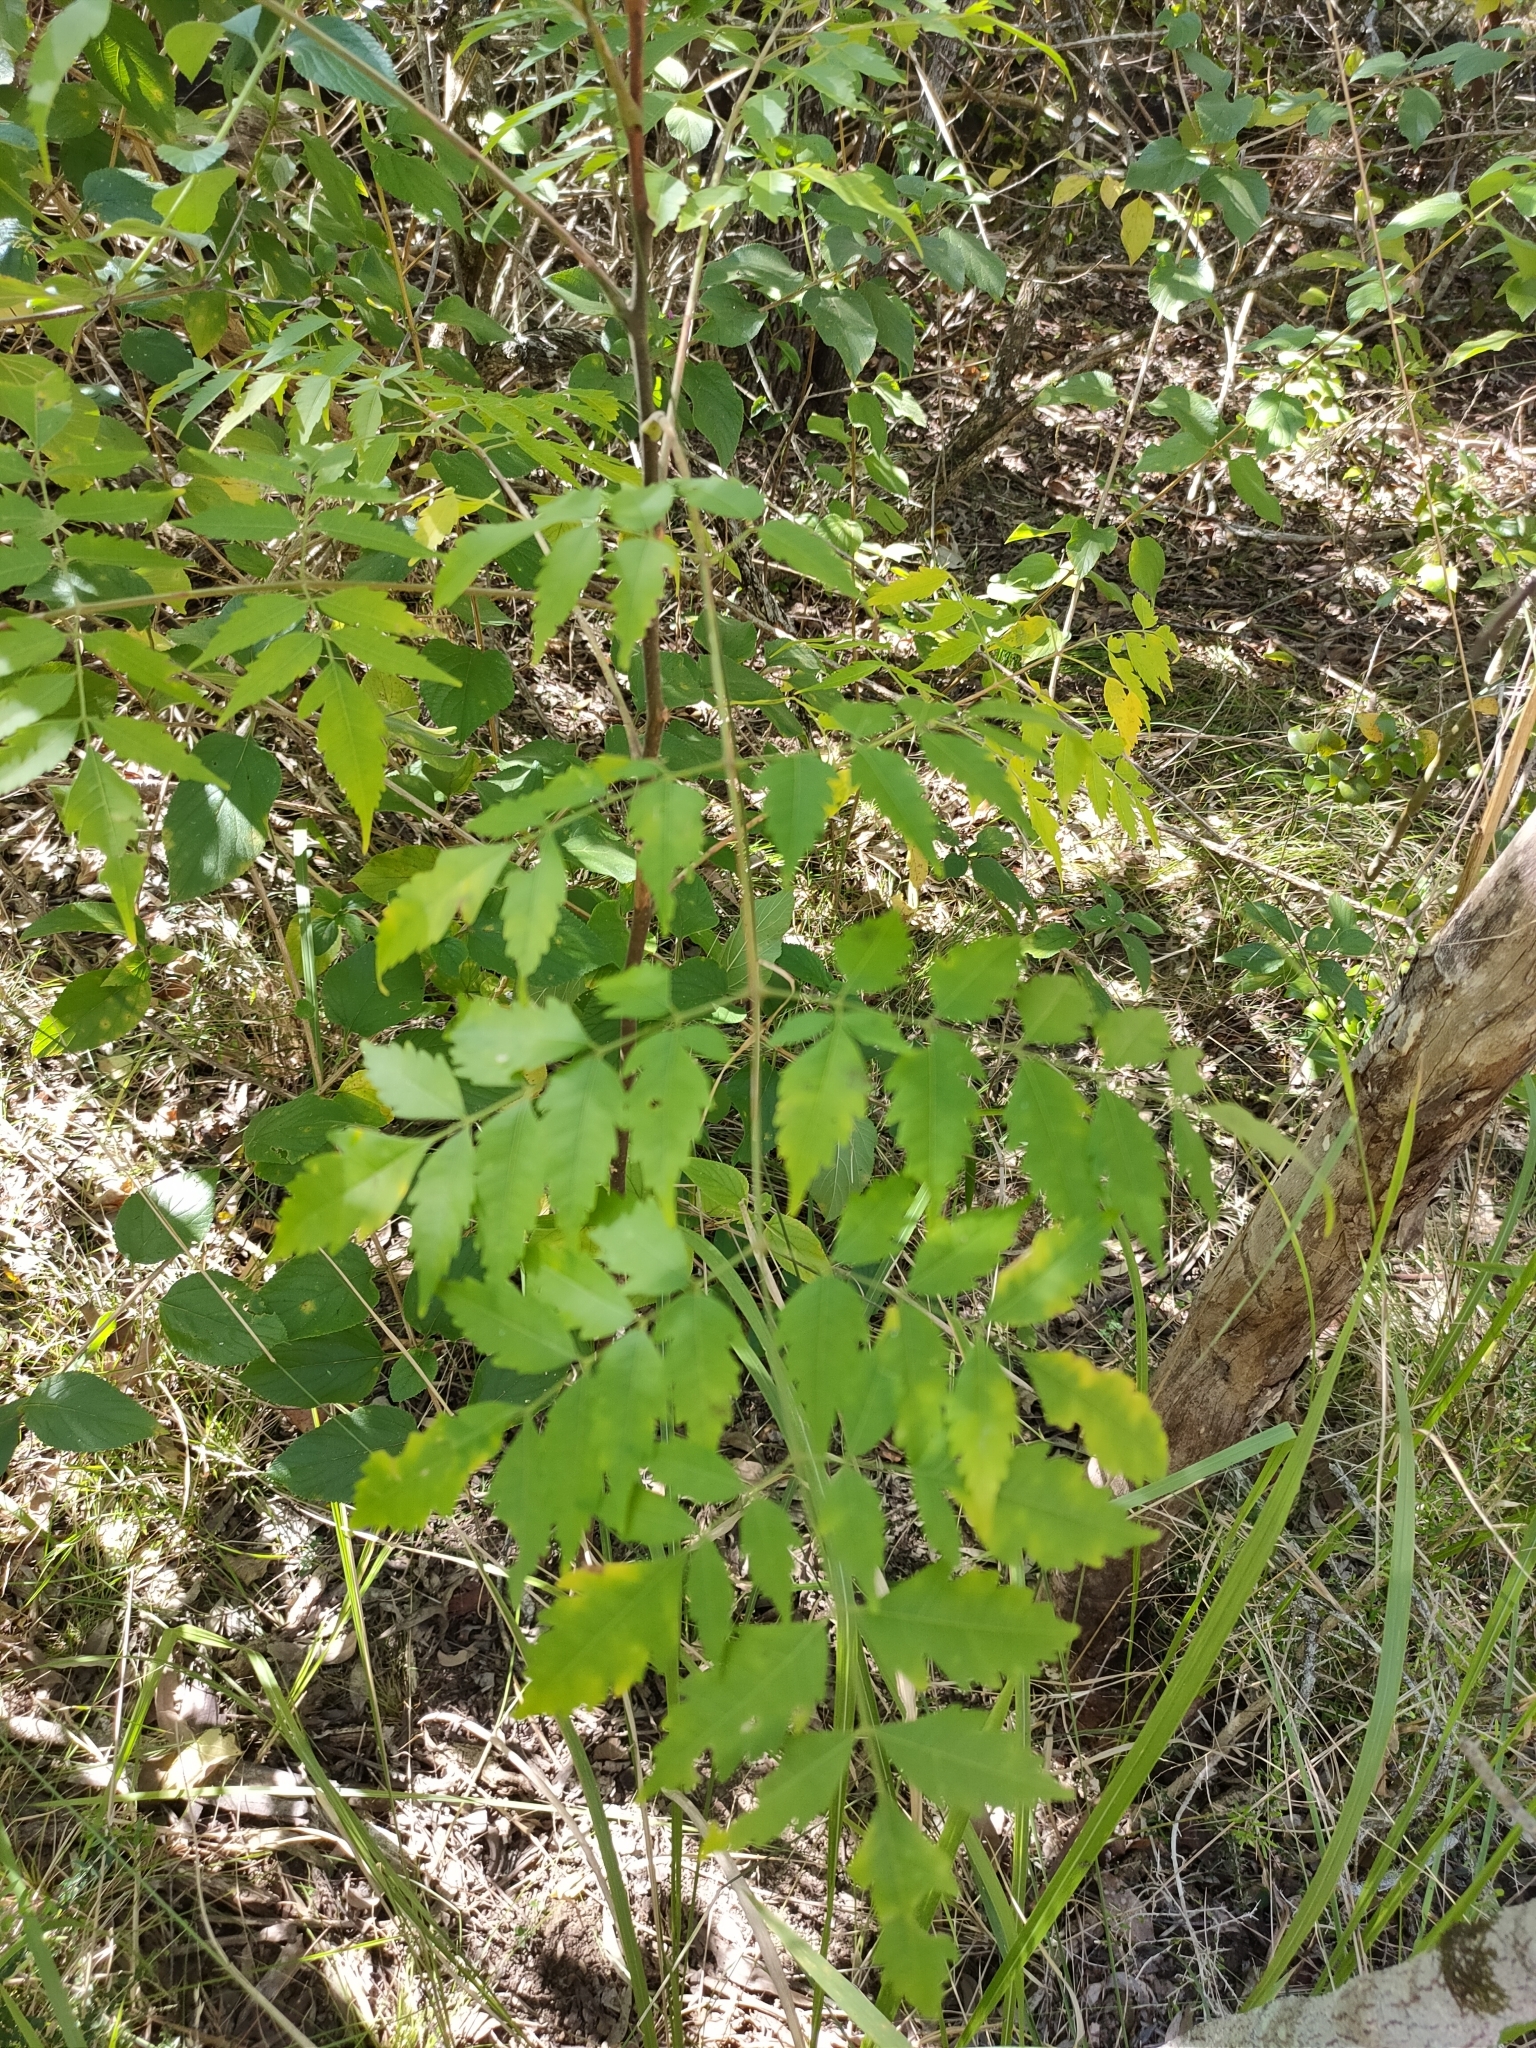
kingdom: Plantae
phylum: Tracheophyta
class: Magnoliopsida
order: Sapindales
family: Meliaceae
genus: Melia
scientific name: Melia azedarach
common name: Chinaberrytree
